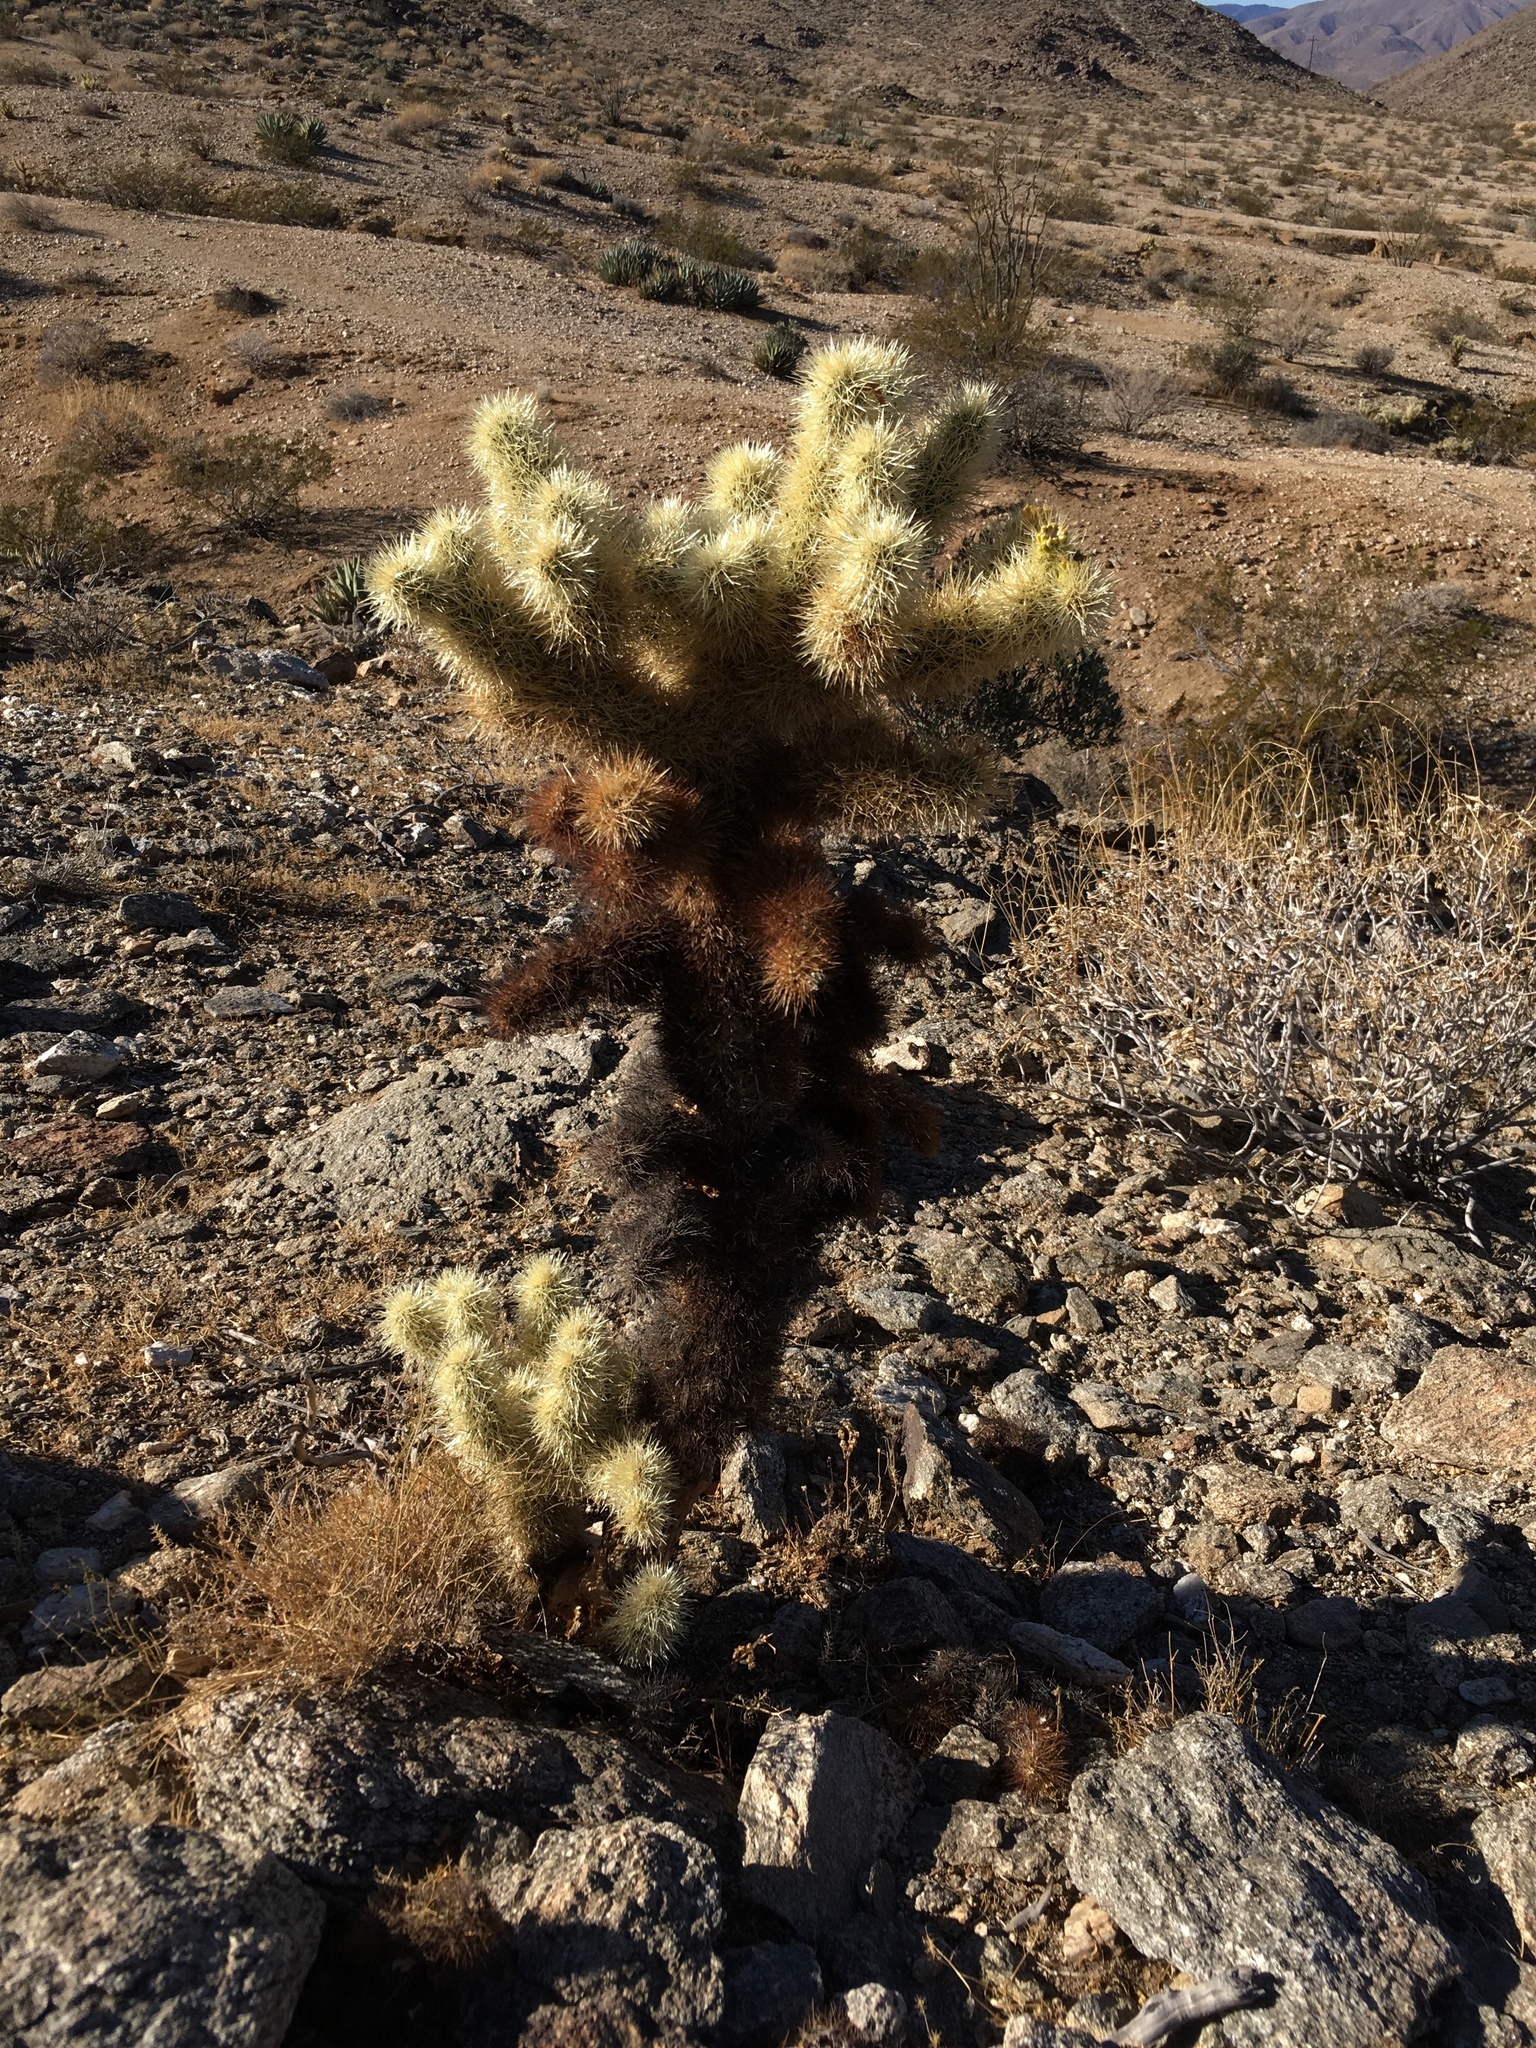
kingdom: Plantae
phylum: Tracheophyta
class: Magnoliopsida
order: Caryophyllales
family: Cactaceae
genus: Cylindropuntia
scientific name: Cylindropuntia fosbergii
